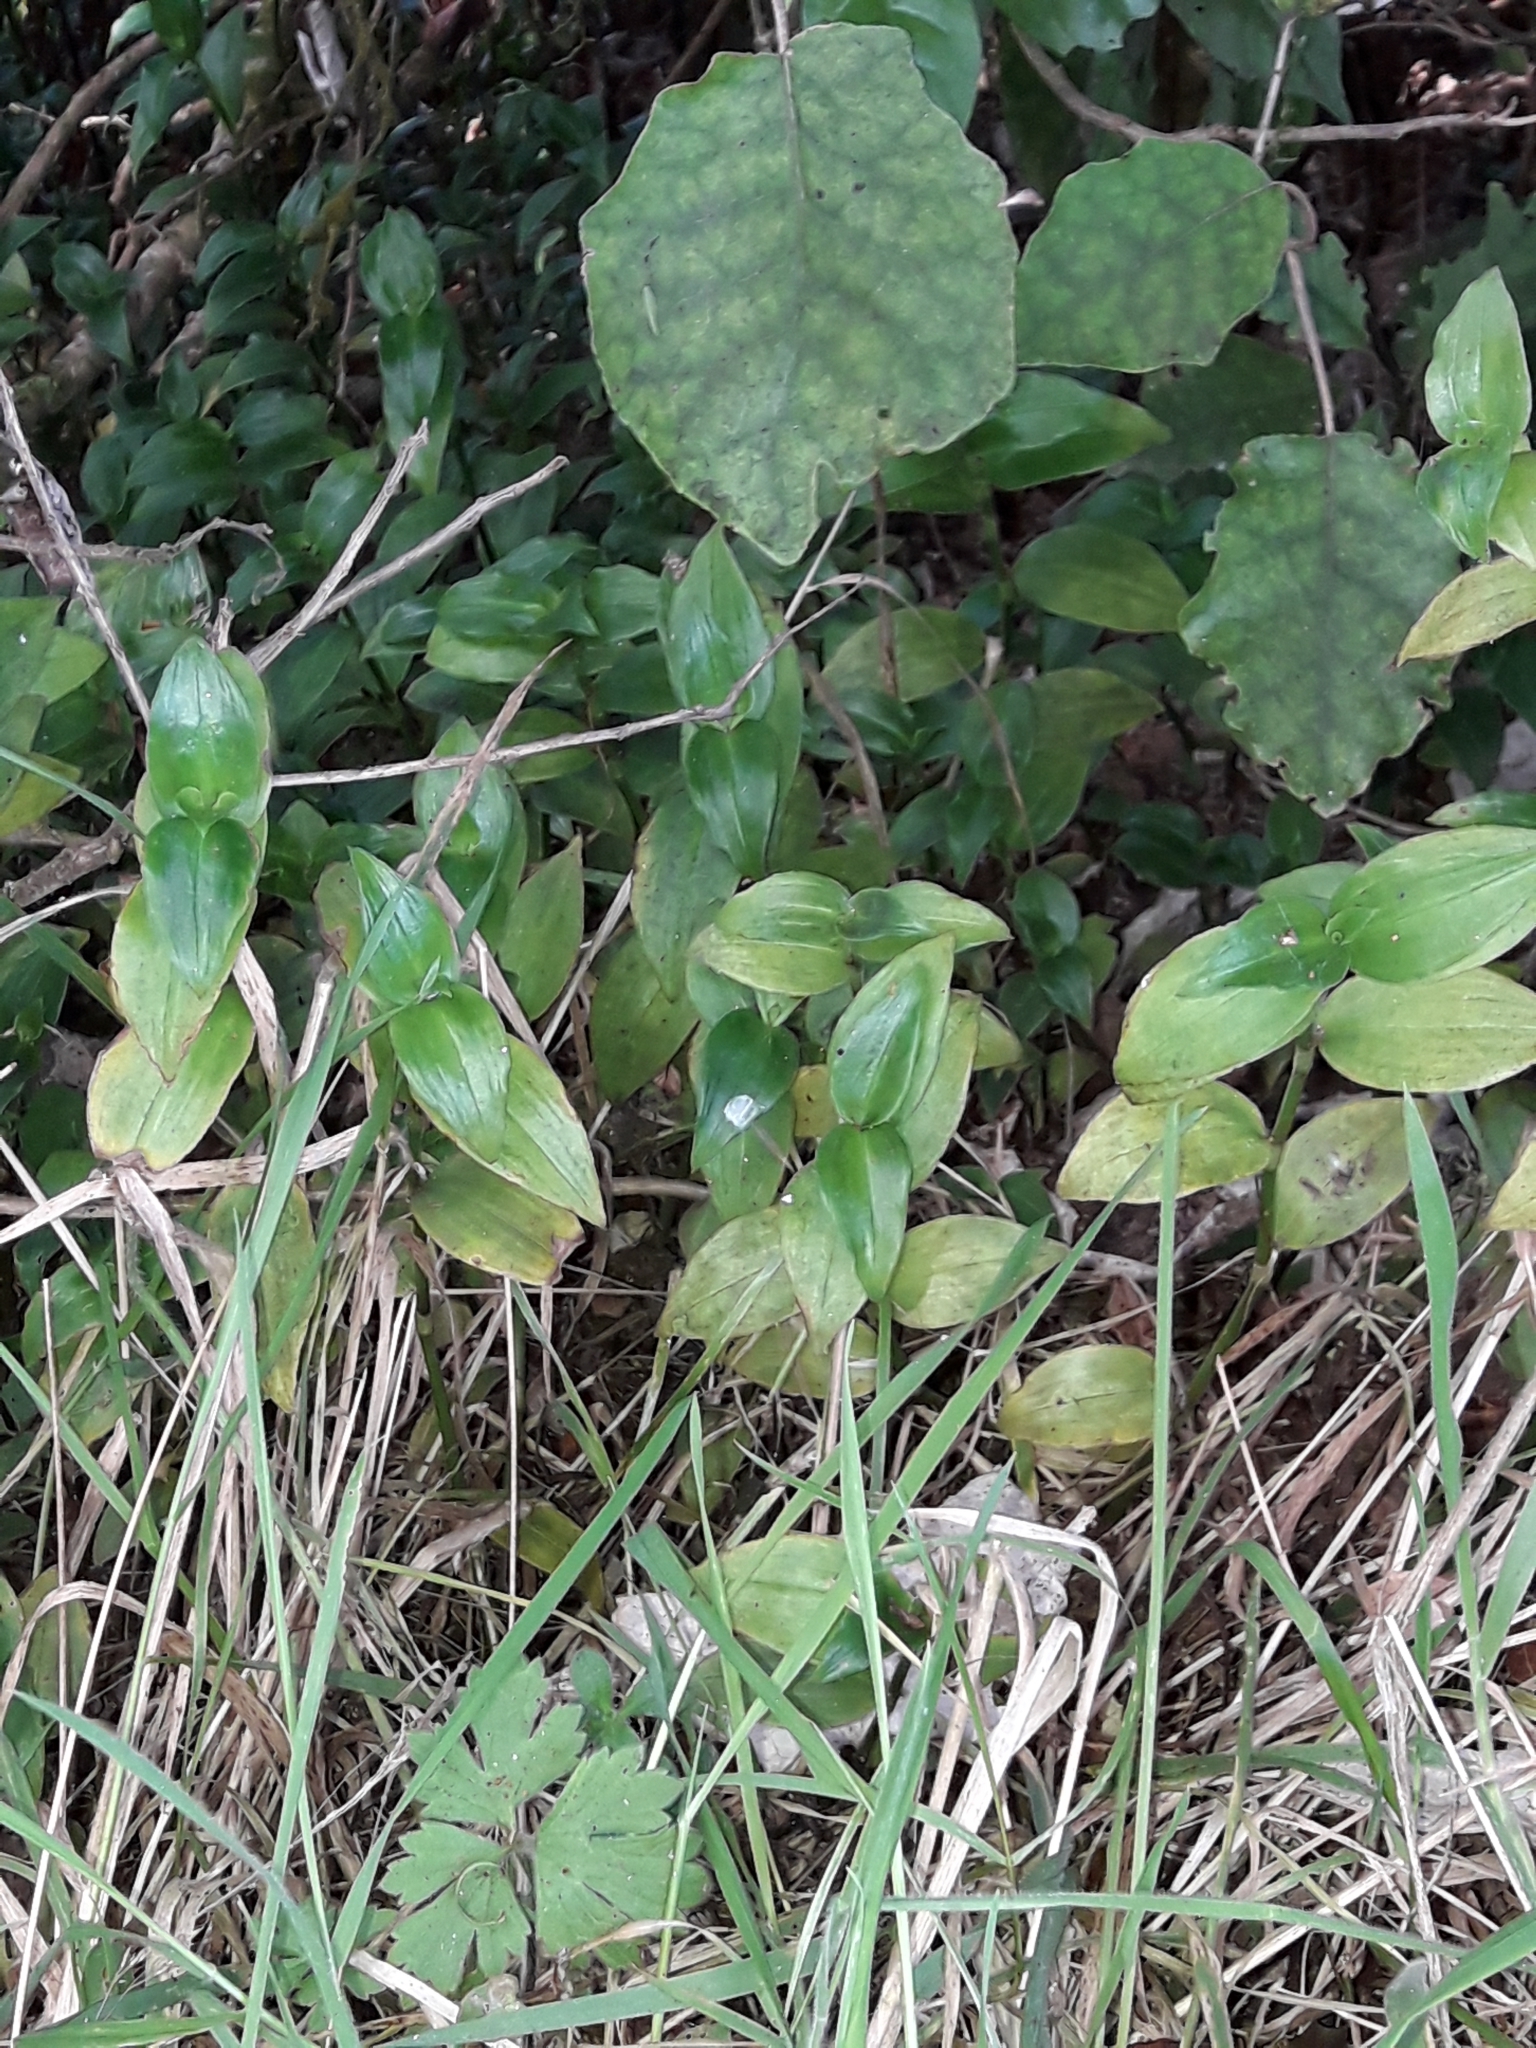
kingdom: Plantae
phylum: Tracheophyta
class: Liliopsida
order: Commelinales
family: Commelinaceae
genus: Tradescantia
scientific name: Tradescantia fluminensis
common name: Wandering-jew
